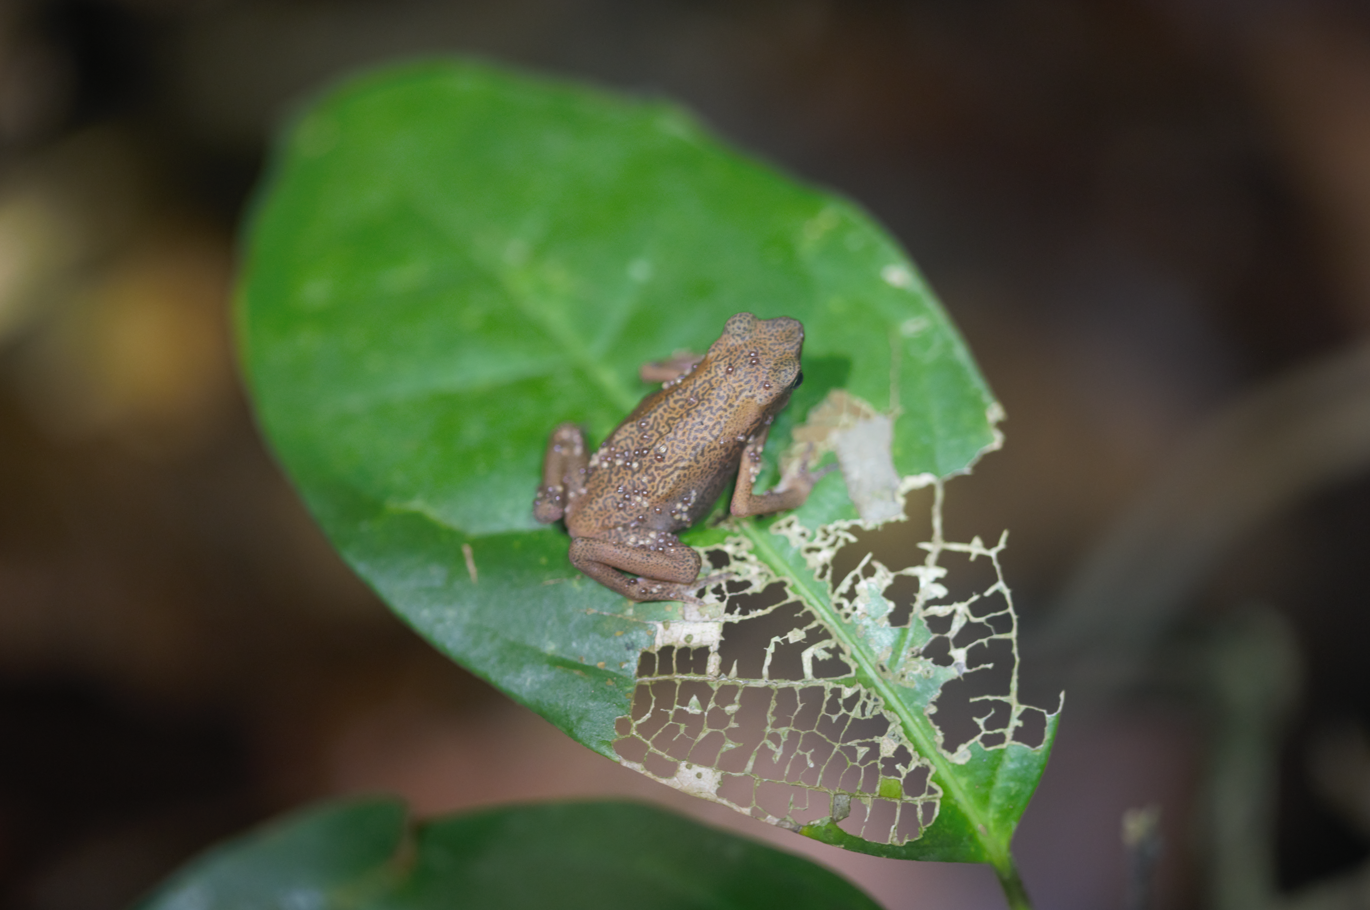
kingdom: Animalia
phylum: Chordata
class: Amphibia
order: Anura
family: Bufonidae
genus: Atelopus
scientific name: Atelopus flavescens
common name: Cayenne stubfoot toad
